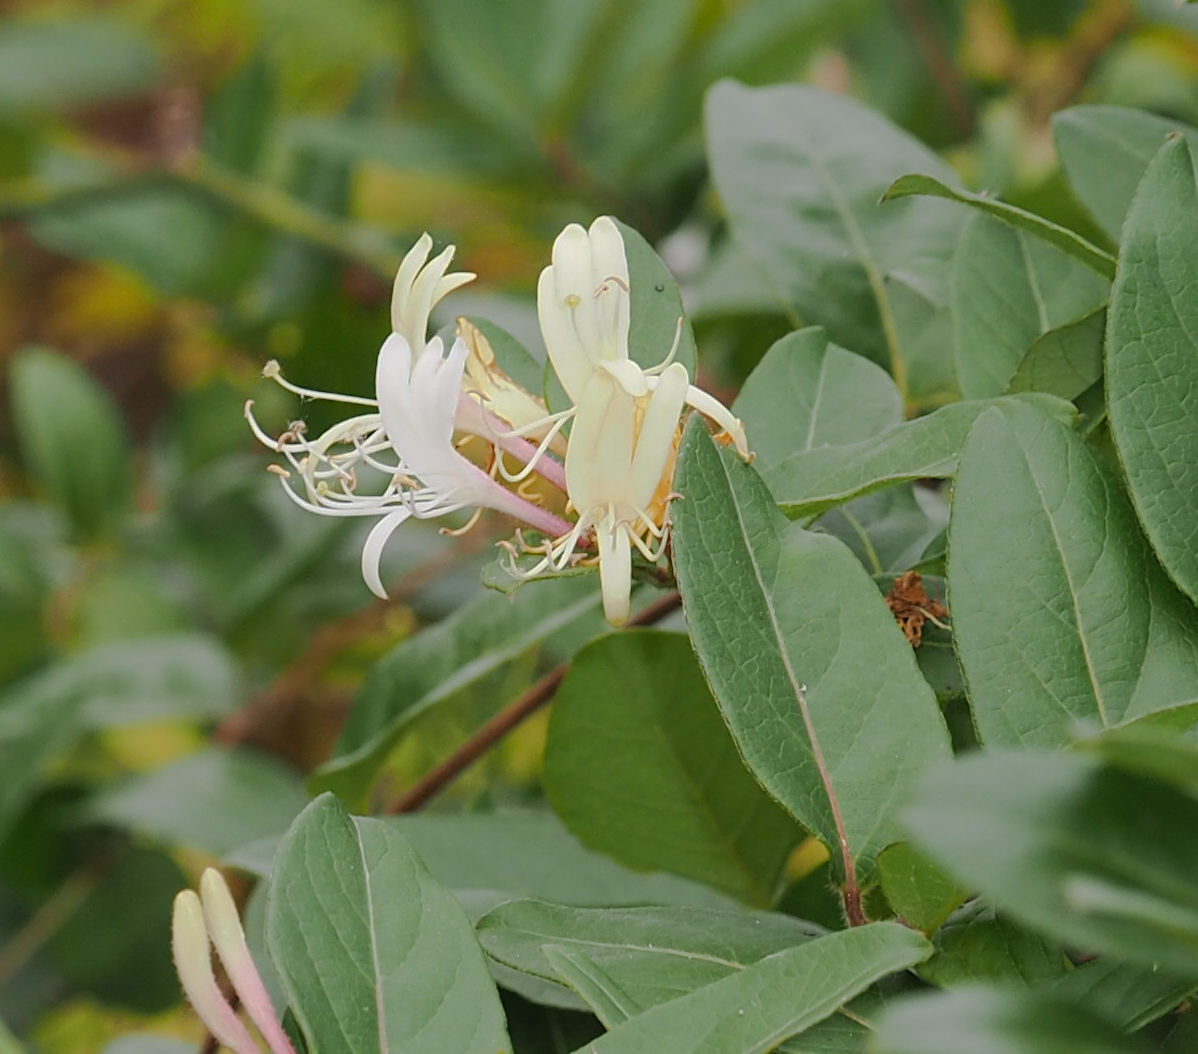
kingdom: Plantae
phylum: Tracheophyta
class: Magnoliopsida
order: Dipsacales
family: Caprifoliaceae
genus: Lonicera
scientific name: Lonicera japonica
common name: Japanese honeysuckle
